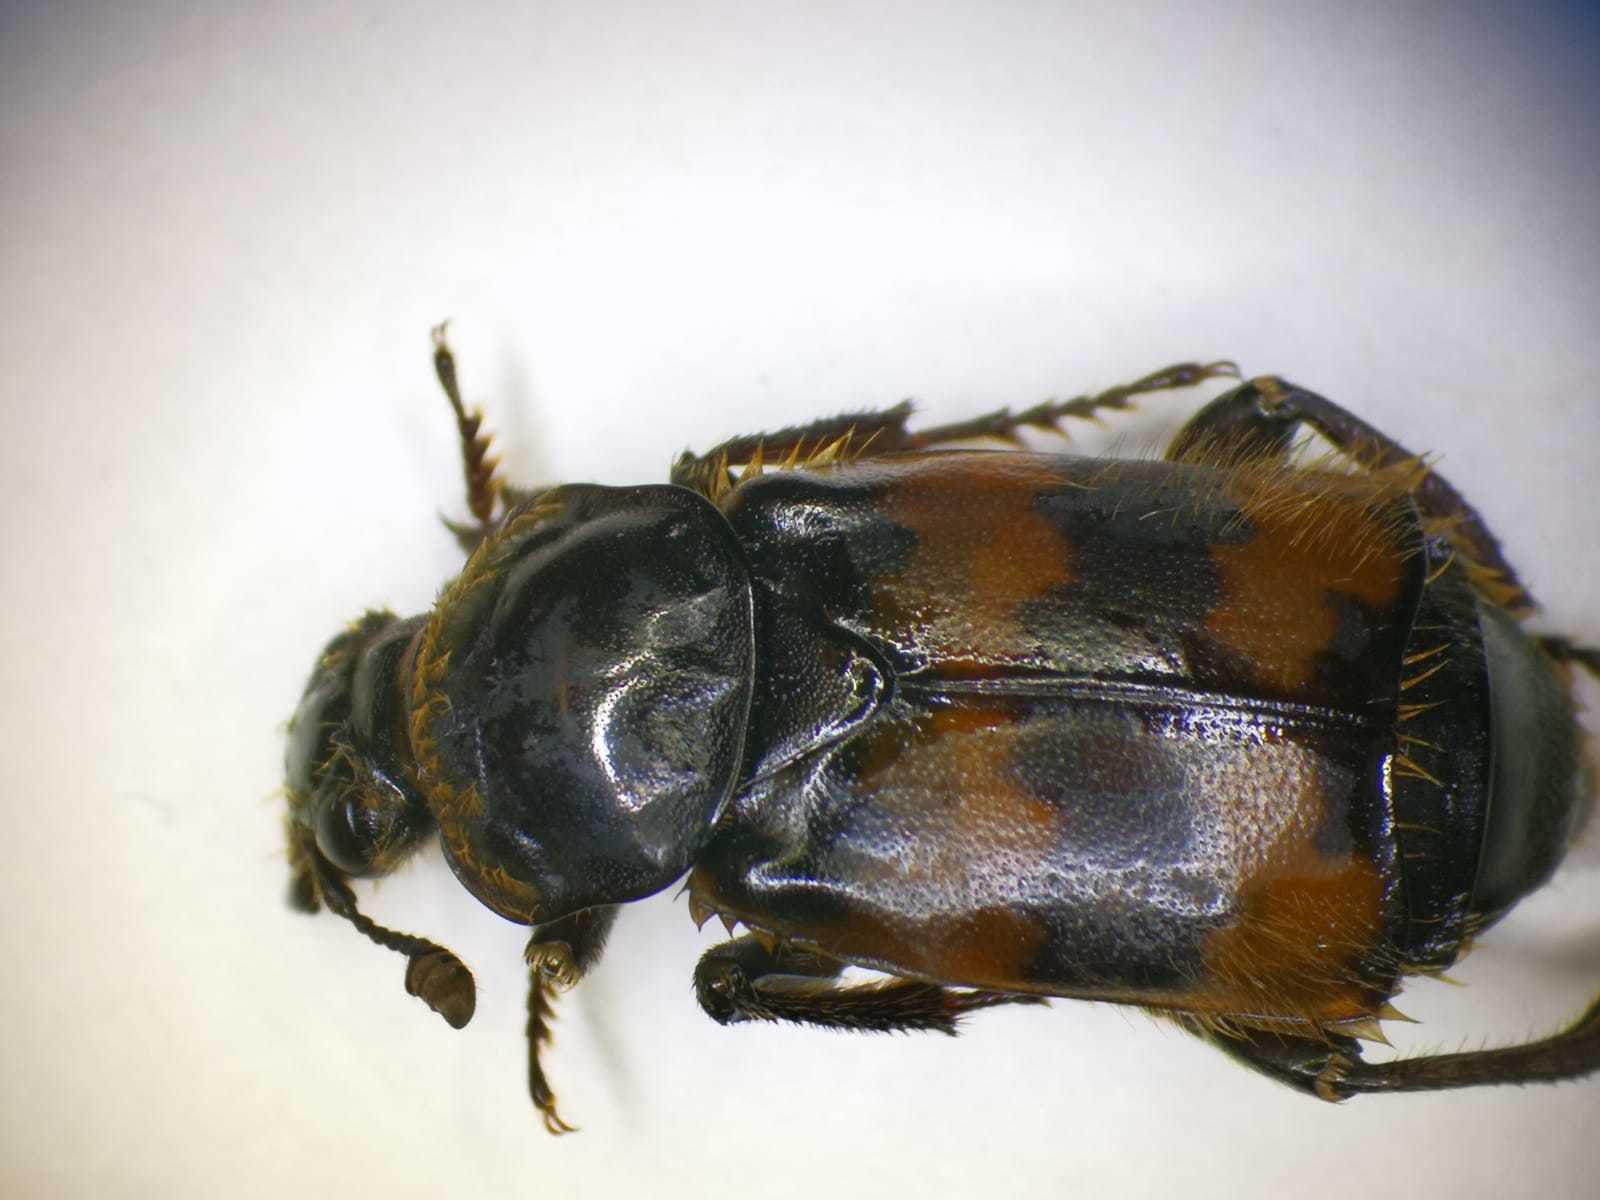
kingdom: Animalia
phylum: Arthropoda
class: Insecta
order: Coleoptera
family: Staphylinidae
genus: Nicrophorus
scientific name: Nicrophorus vespillo
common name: Common burying beetle
